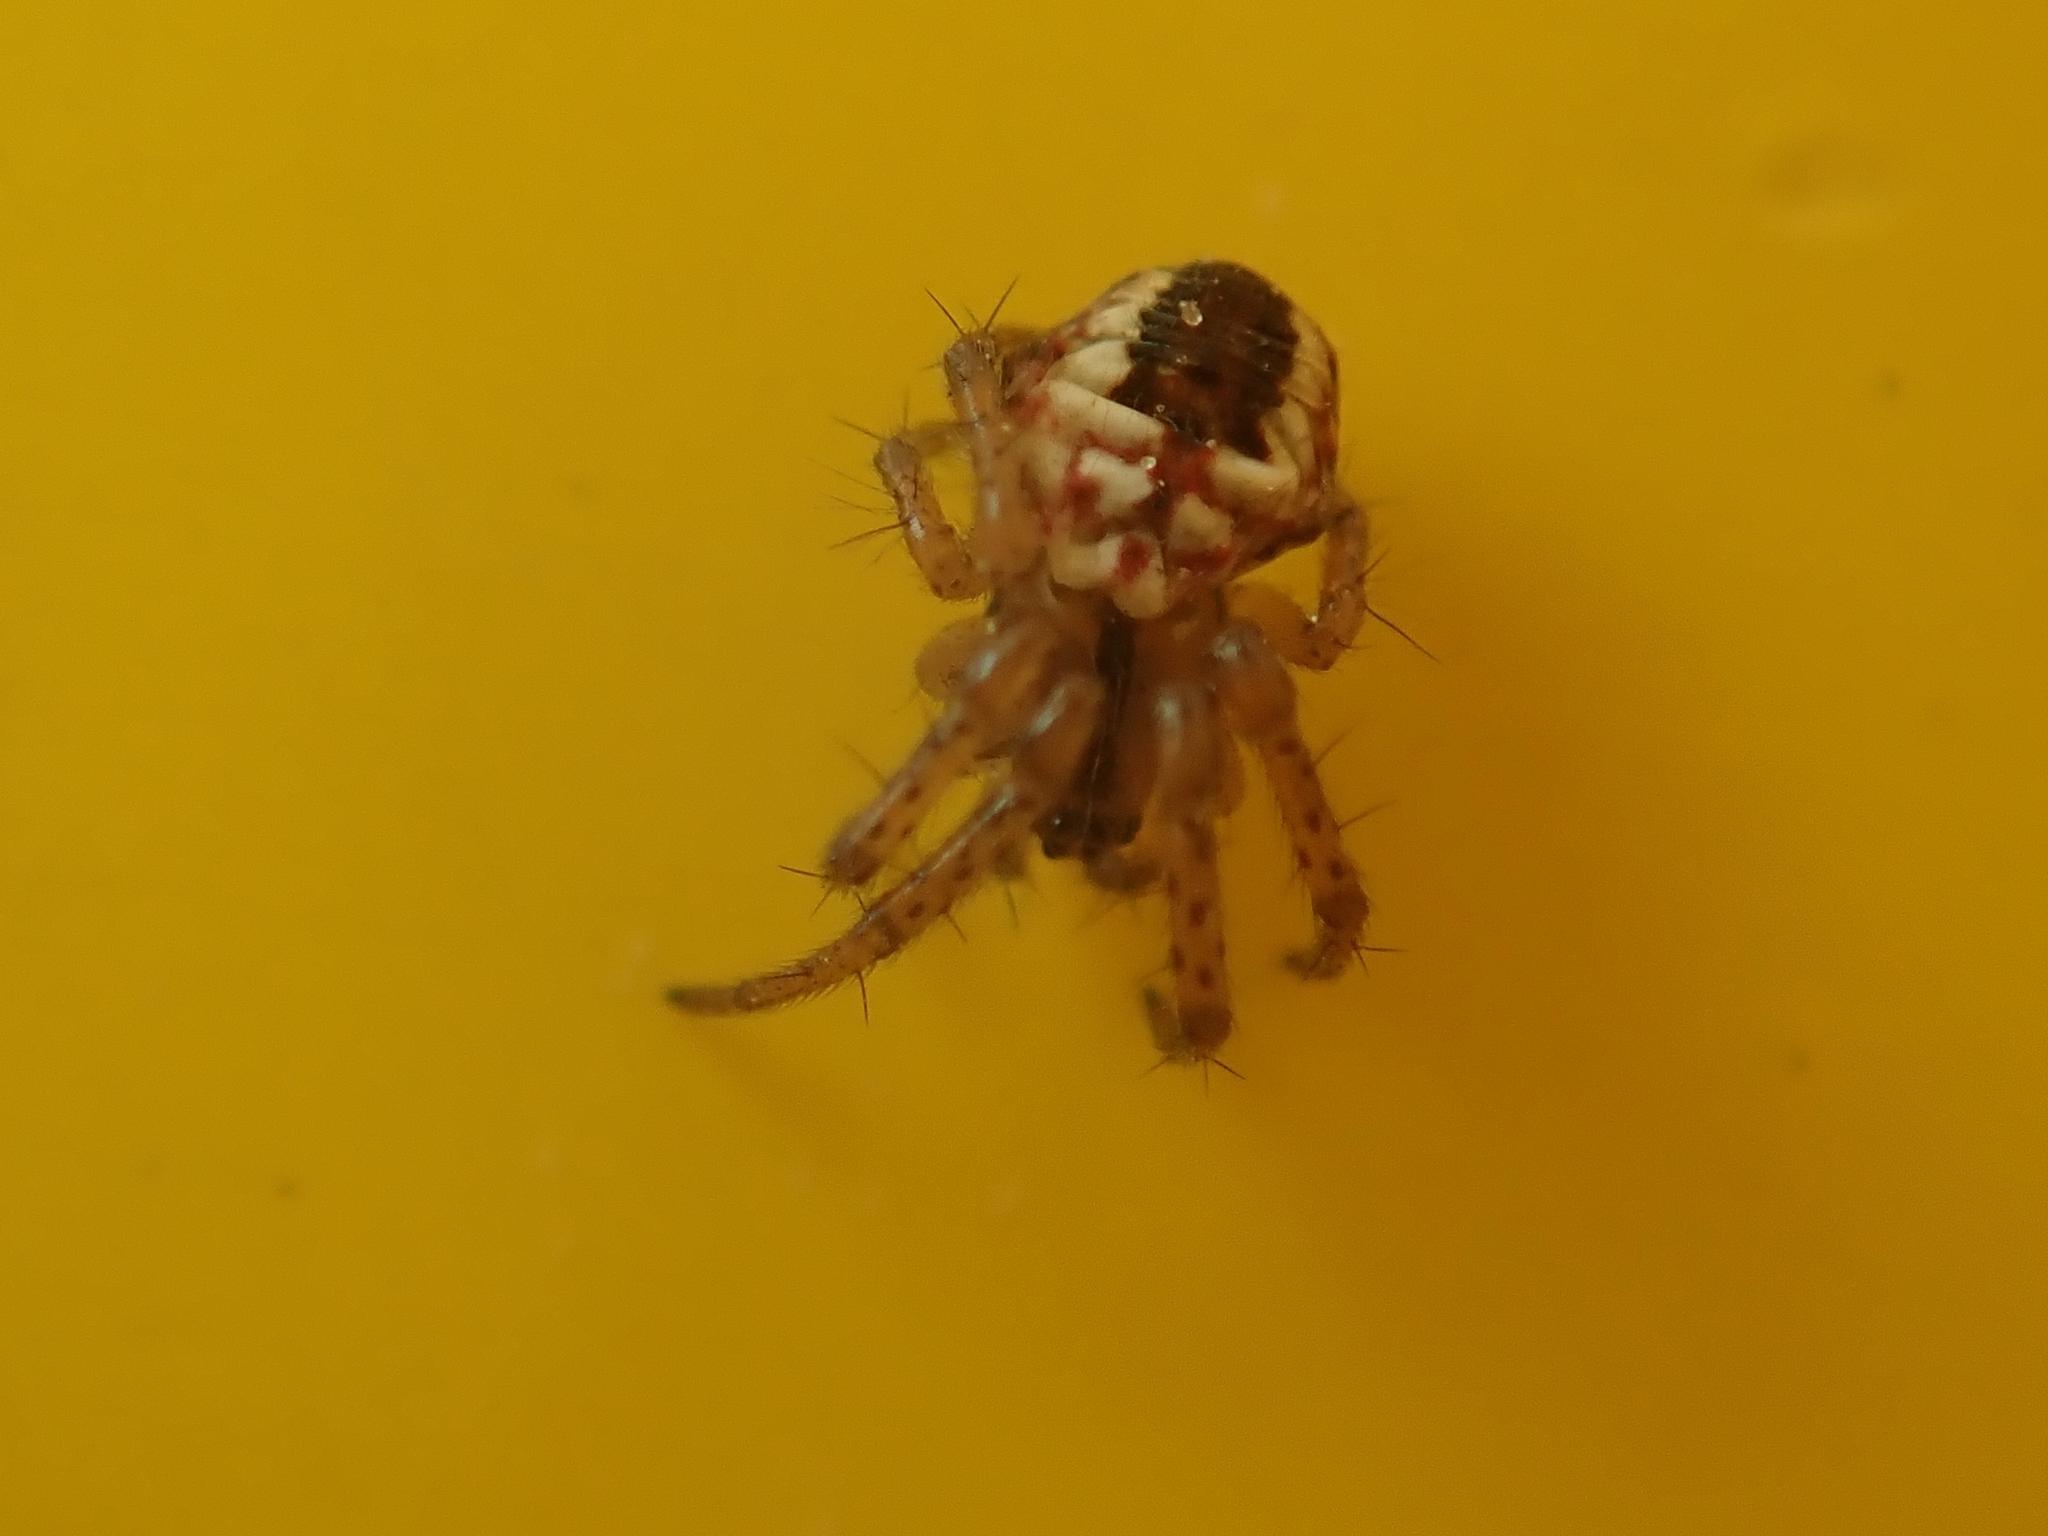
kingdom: Animalia
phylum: Arthropoda
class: Arachnida
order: Araneae
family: Araneidae
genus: Mangora
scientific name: Mangora acalypha
